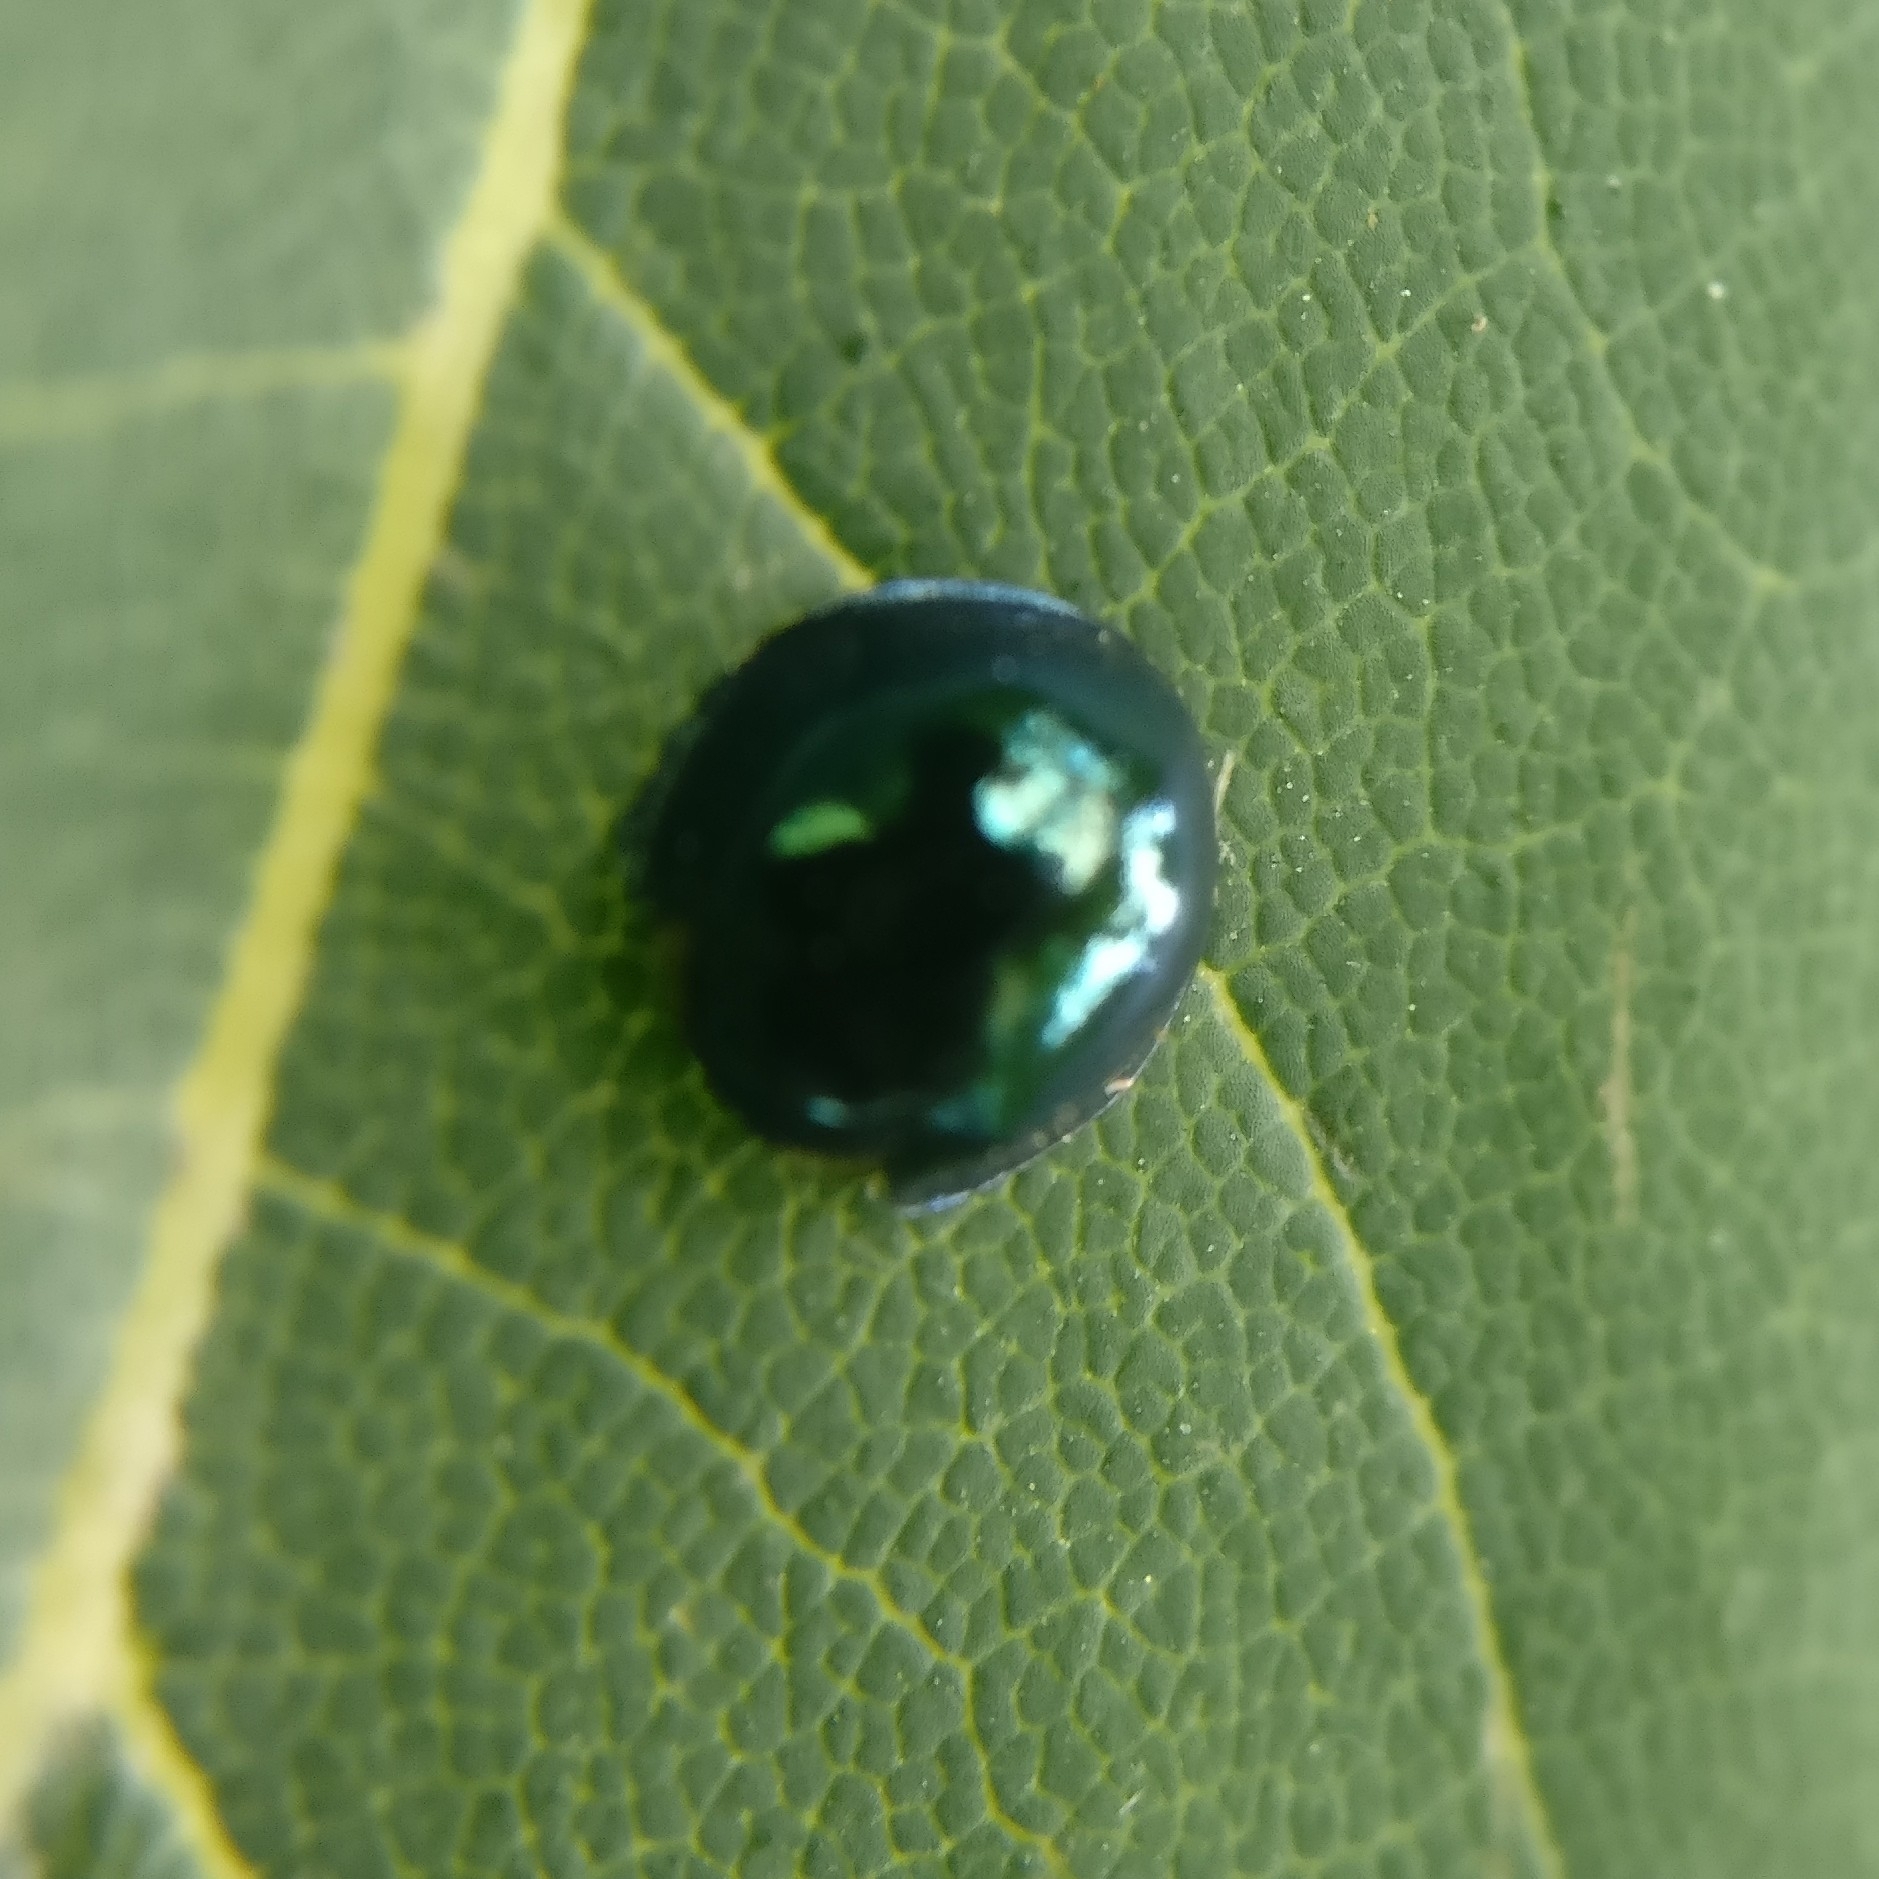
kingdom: Animalia
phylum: Arthropoda
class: Insecta
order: Coleoptera
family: Coccinellidae
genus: Halmus
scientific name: Halmus chalybeus
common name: Steel blue ladybird beetle
